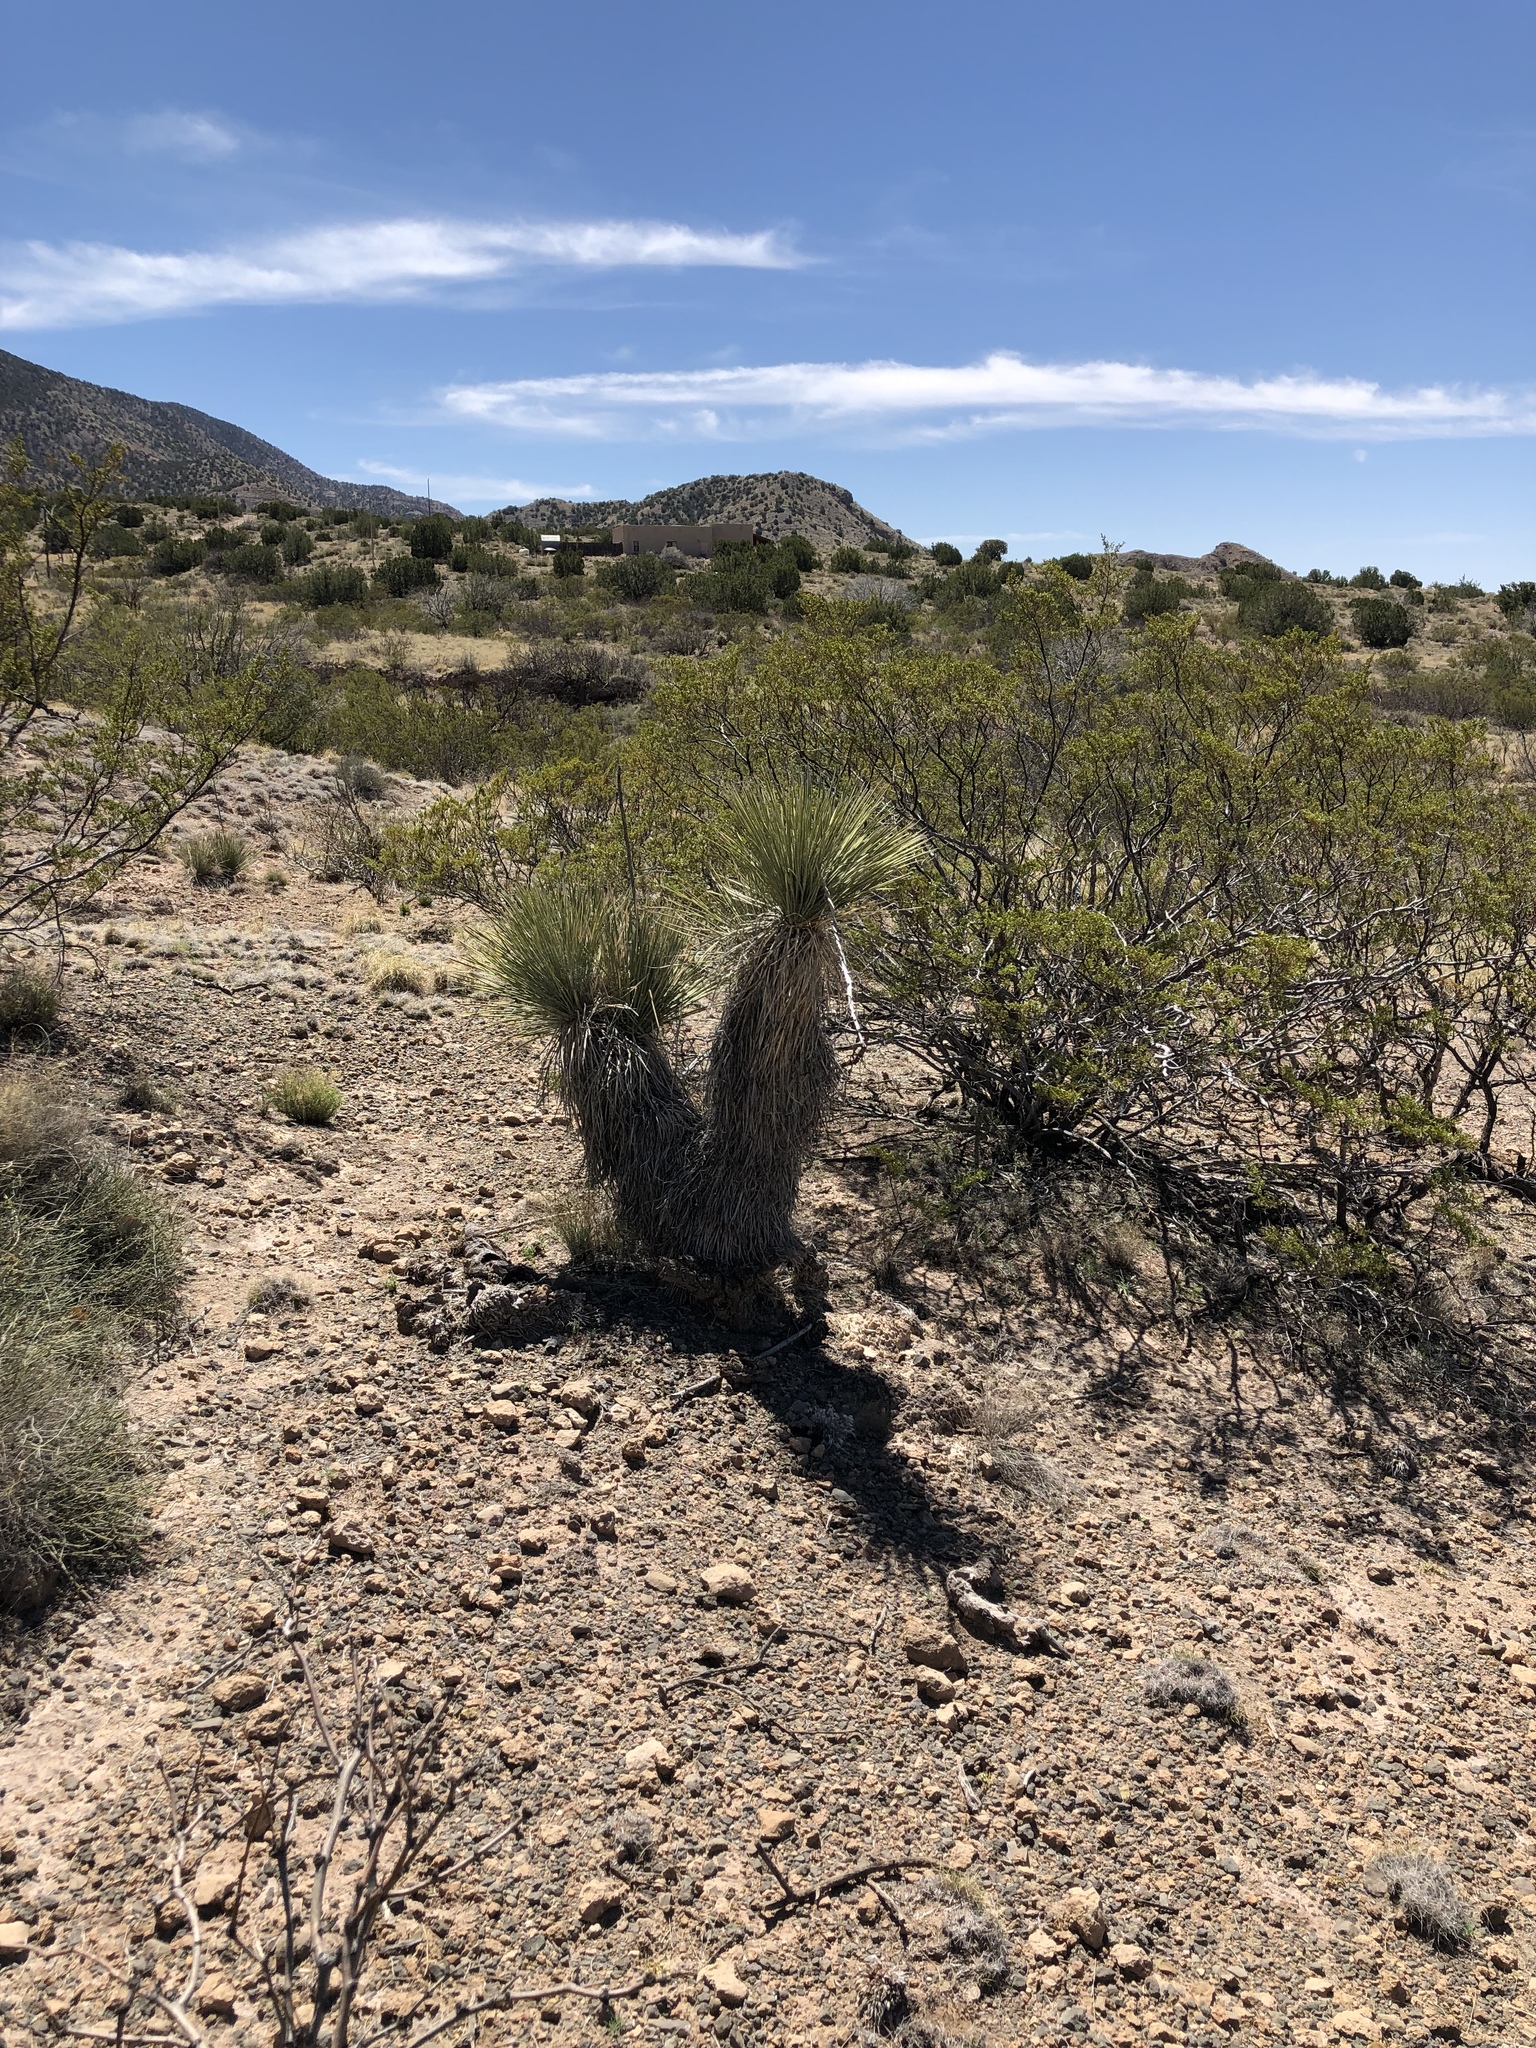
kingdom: Plantae
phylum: Tracheophyta
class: Liliopsida
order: Asparagales
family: Asparagaceae
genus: Yucca
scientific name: Yucca elata
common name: Palmella
